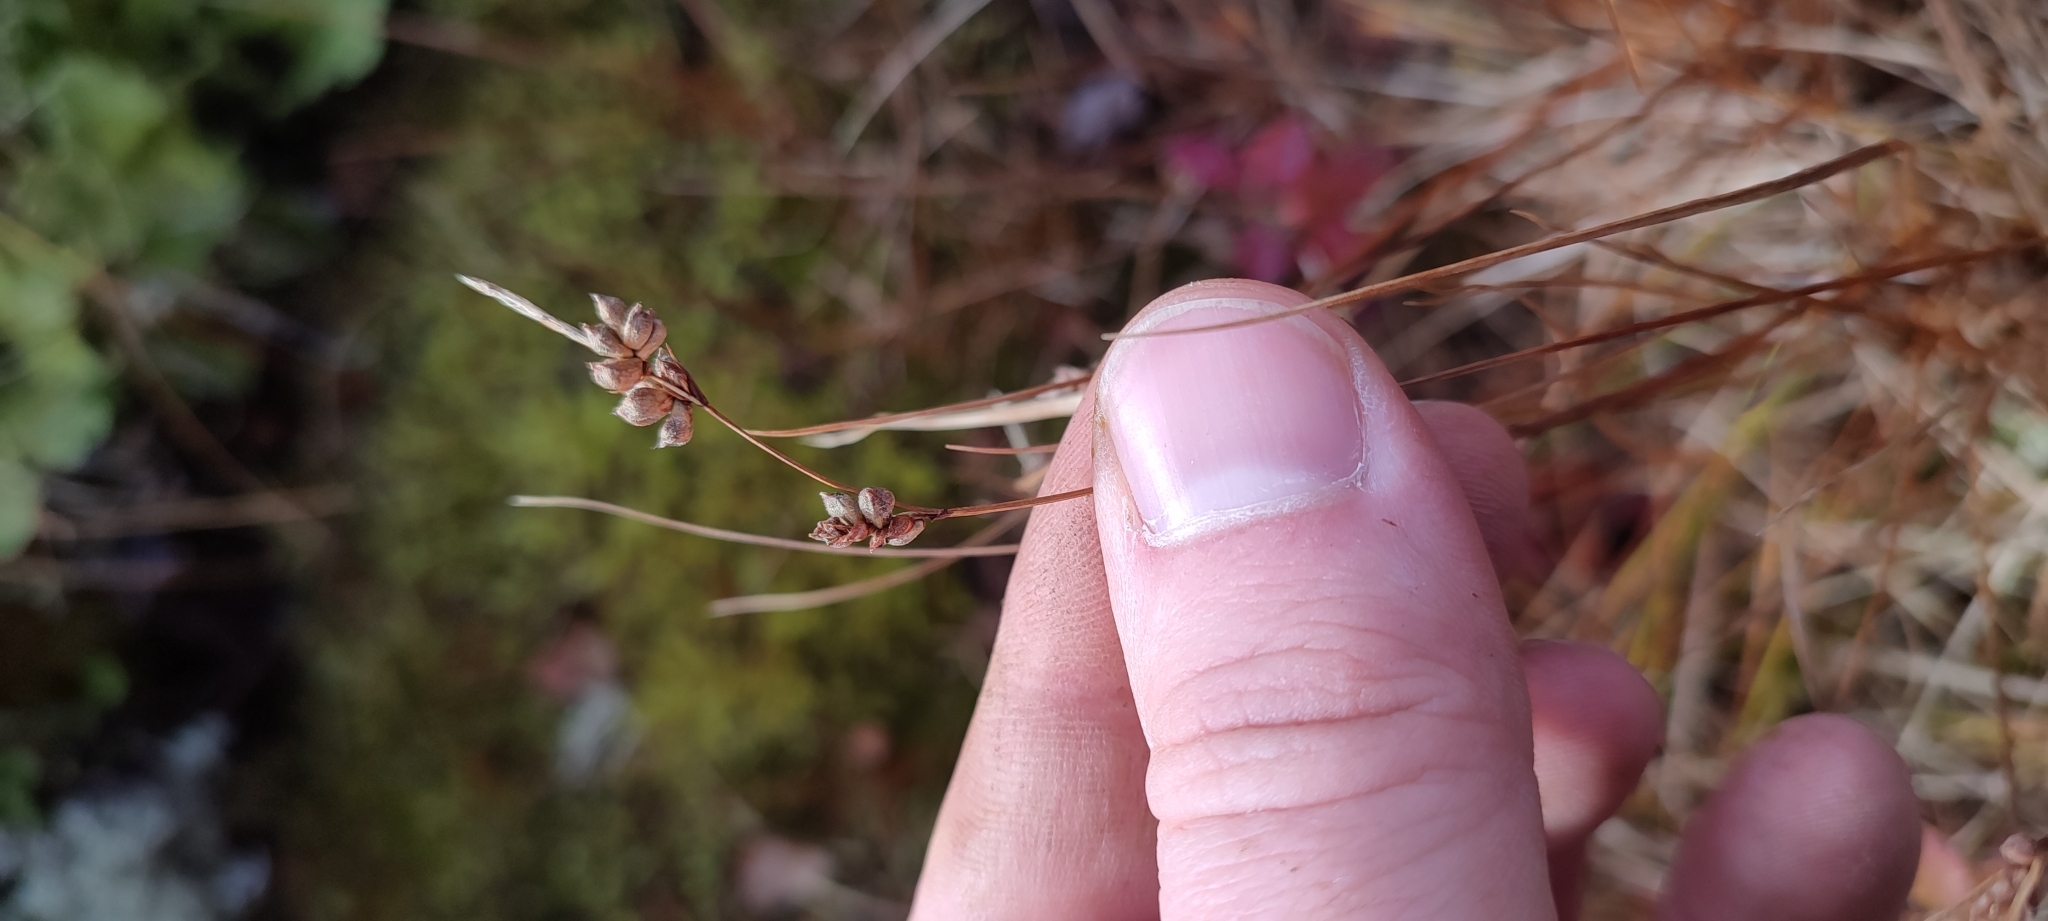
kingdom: Plantae
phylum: Tracheophyta
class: Liliopsida
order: Poales
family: Cyperaceae
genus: Carex
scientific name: Carex globularis
